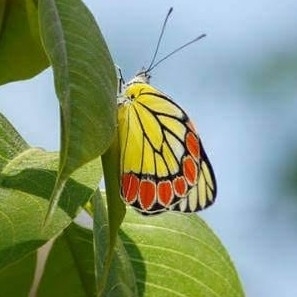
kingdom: Animalia
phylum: Arthropoda
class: Insecta
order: Lepidoptera
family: Pieridae
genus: Delias
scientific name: Delias eucharis
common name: Common jezebel
